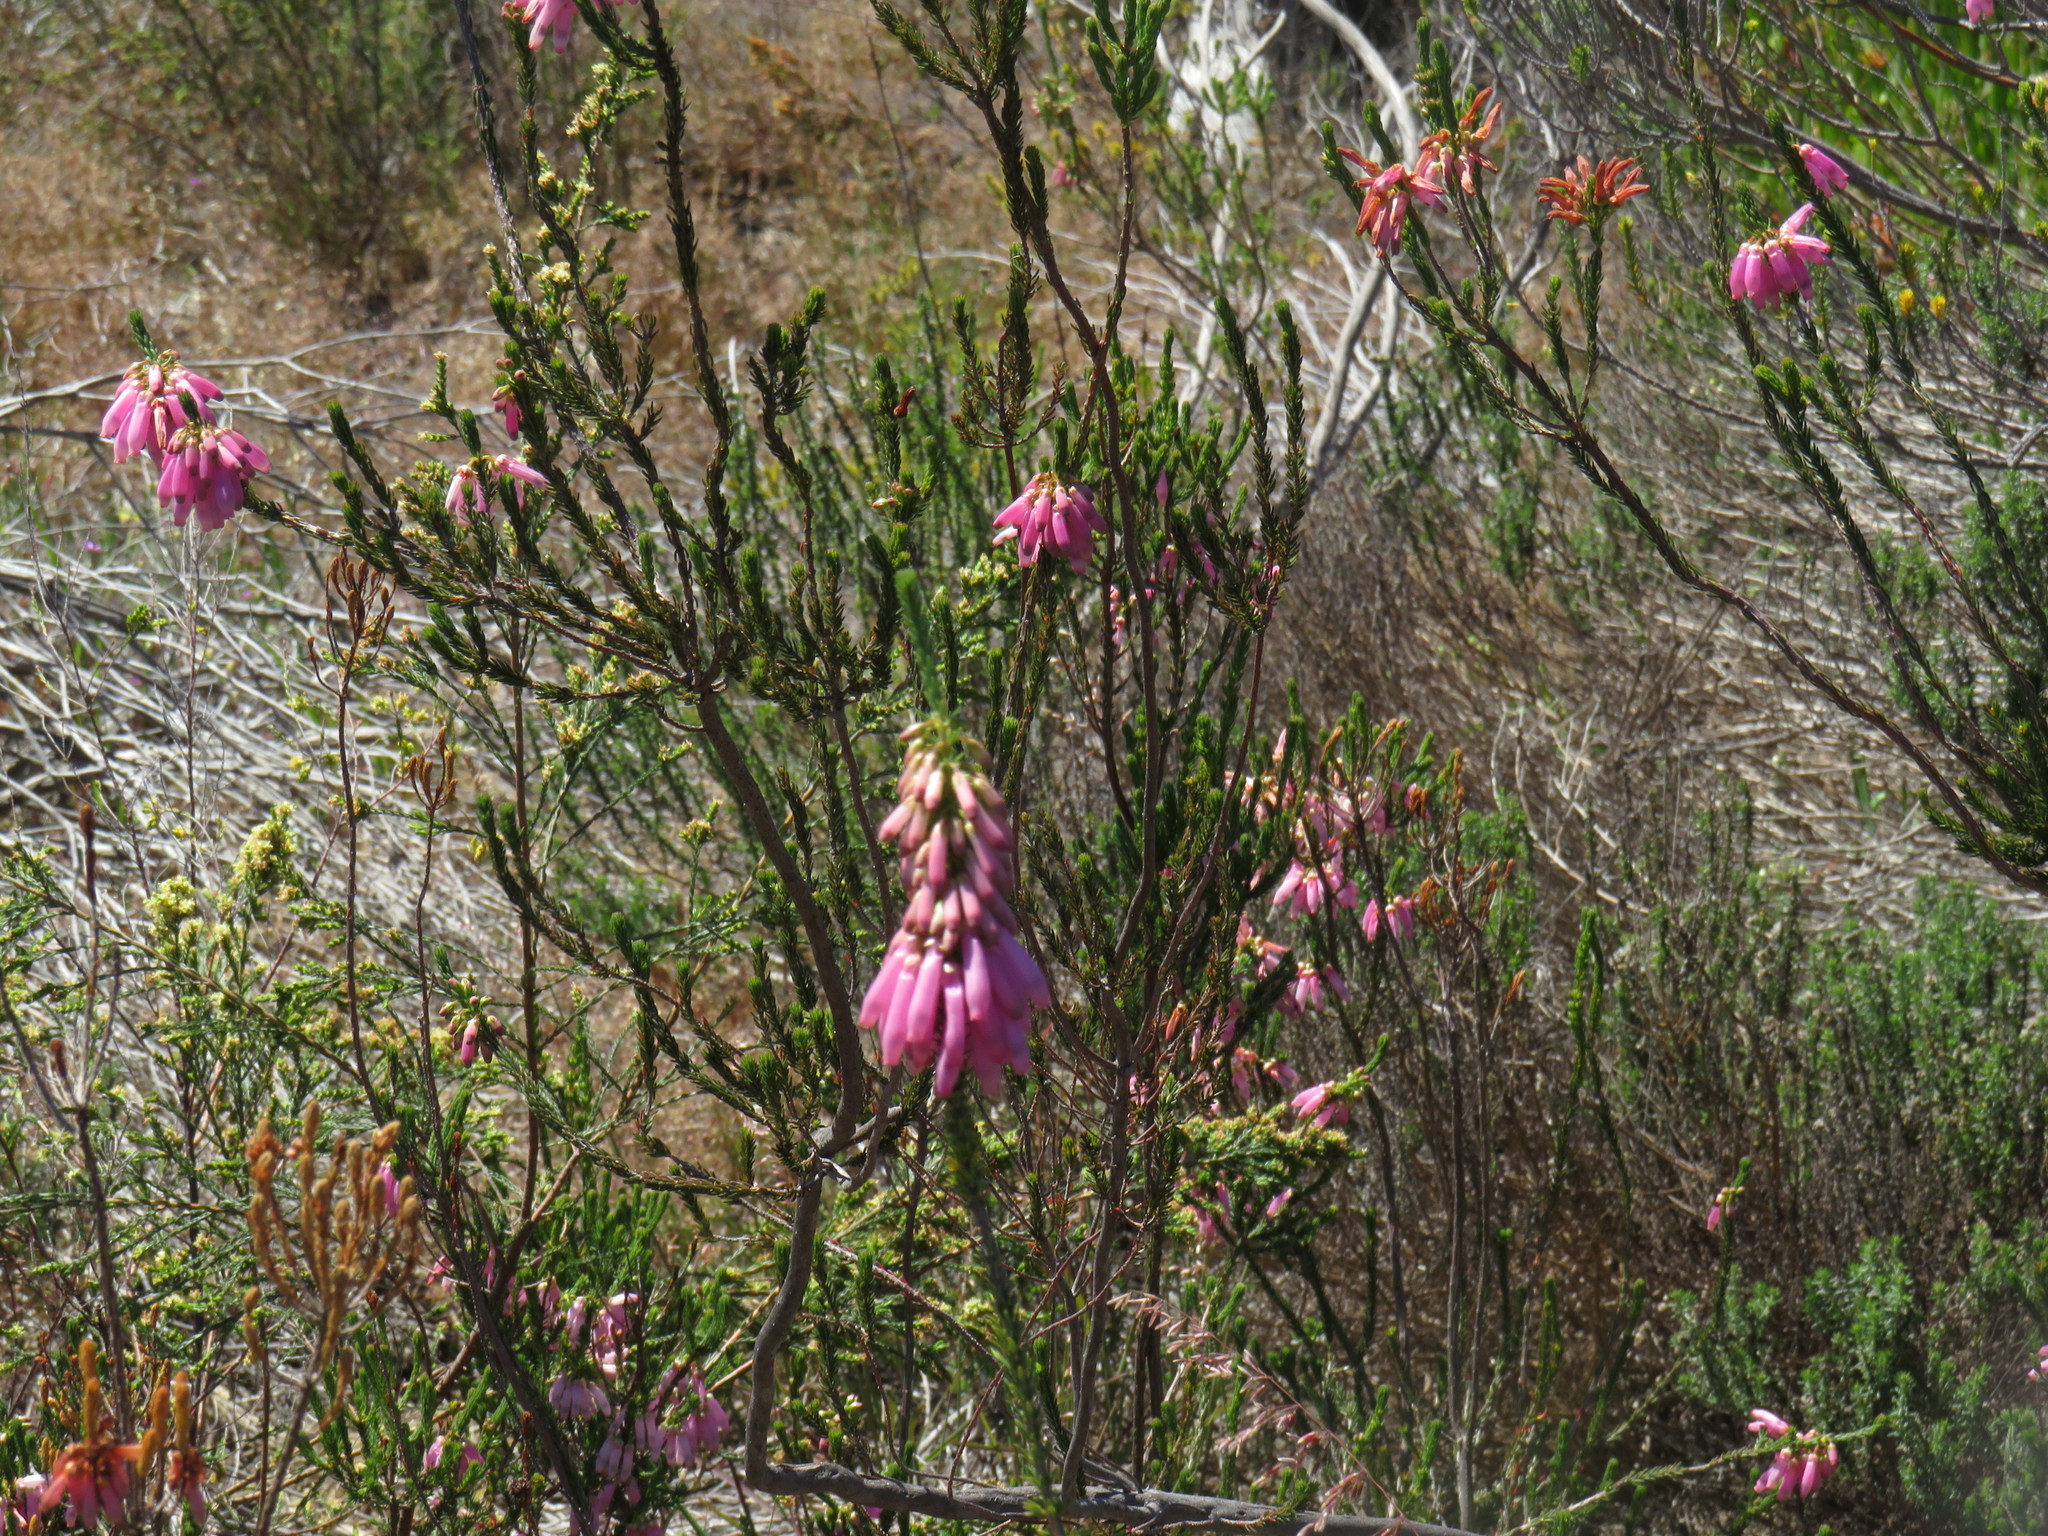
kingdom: Plantae
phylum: Tracheophyta
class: Magnoliopsida
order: Ericales
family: Ericaceae
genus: Erica
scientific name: Erica mammosa
